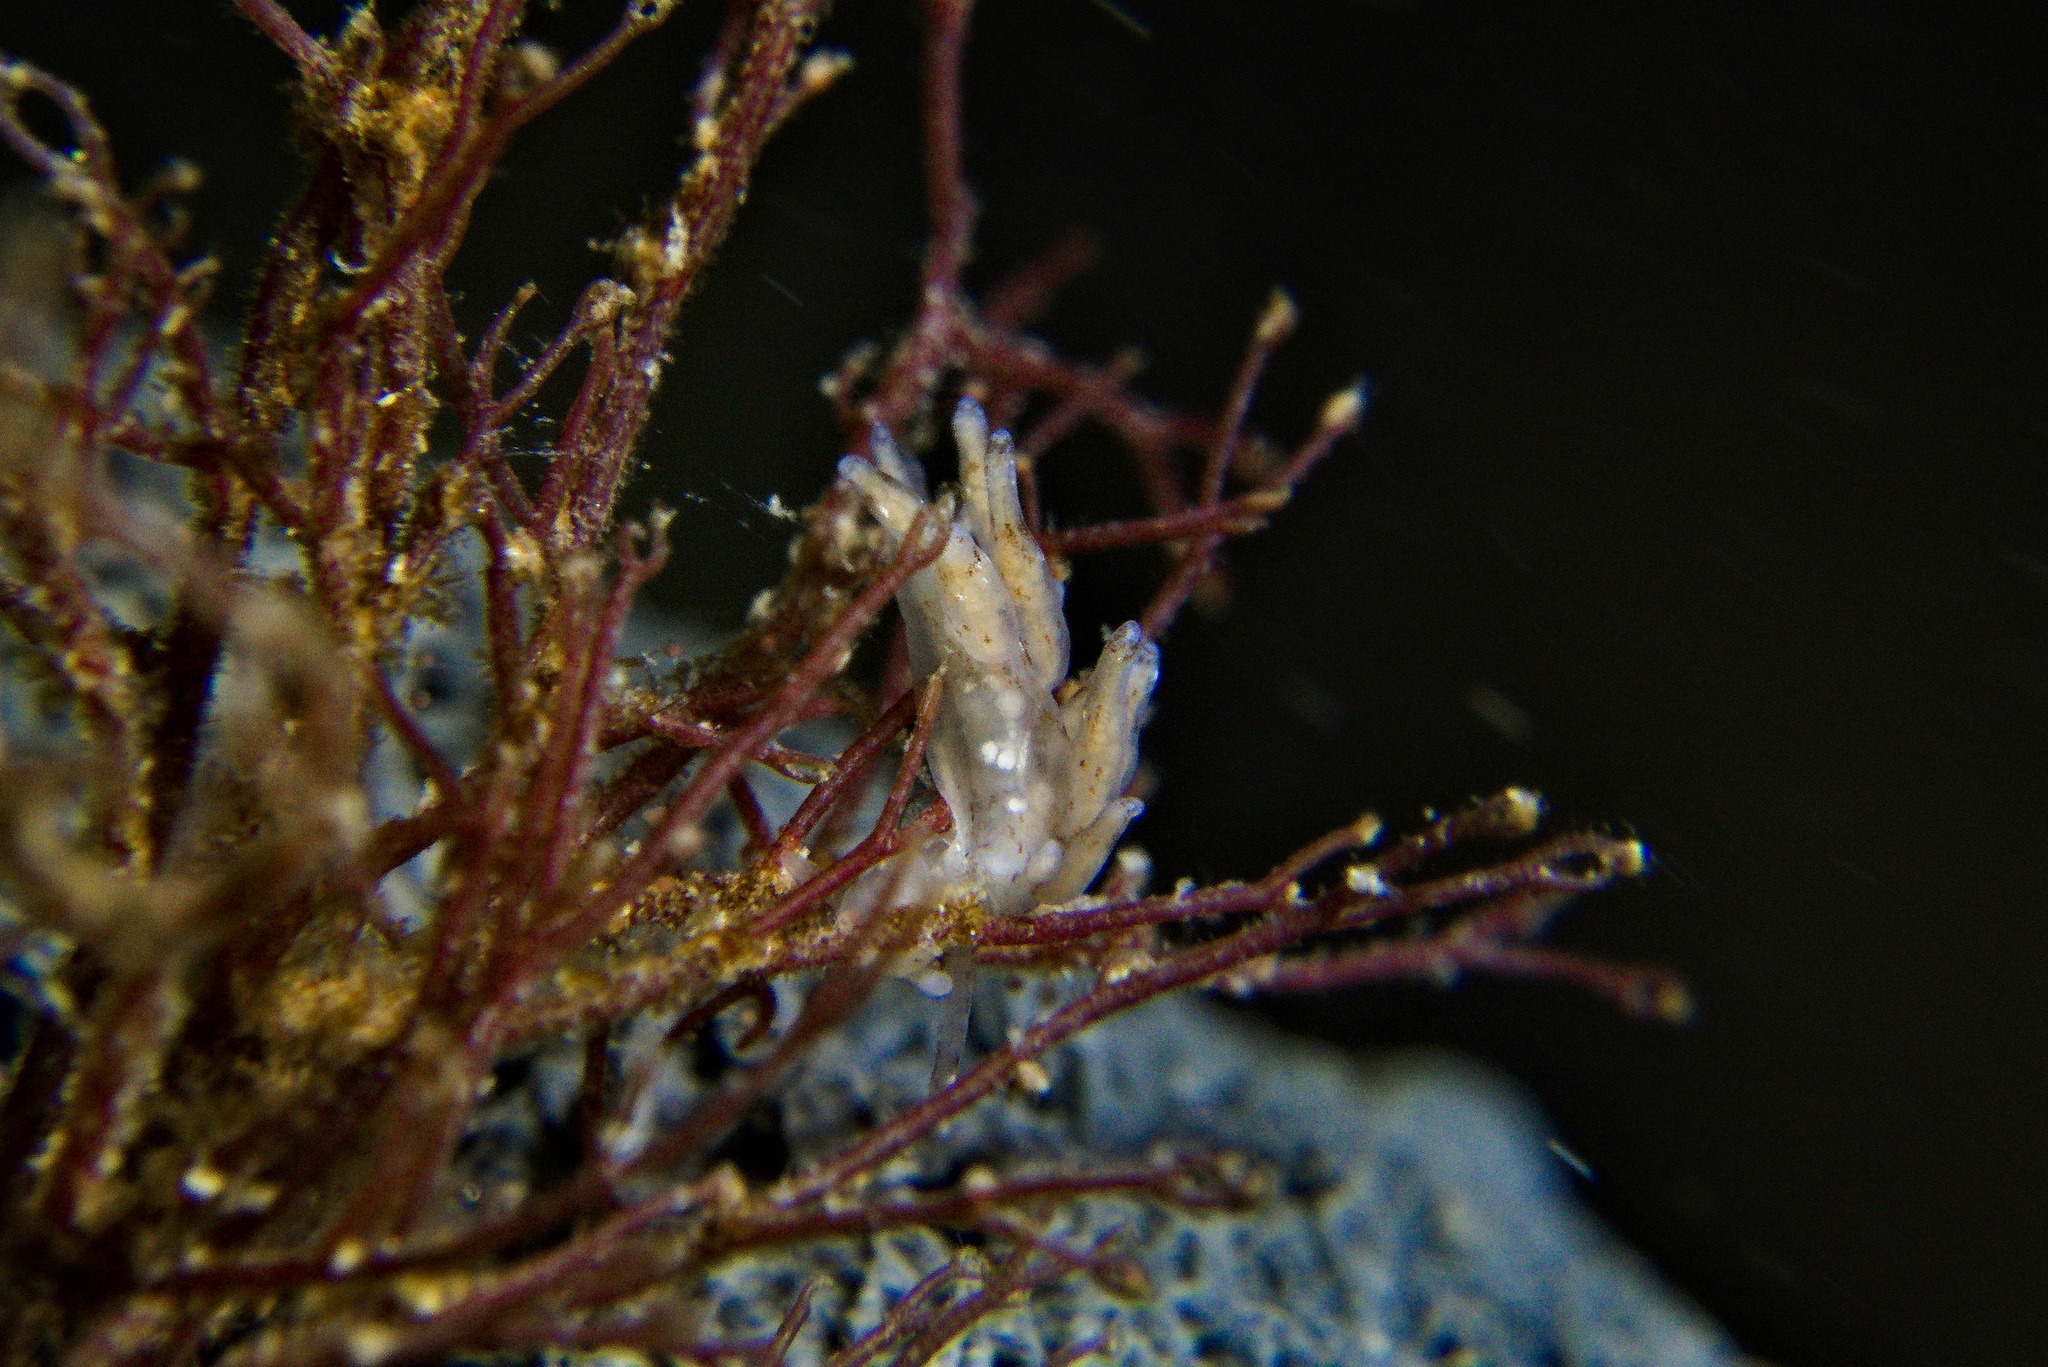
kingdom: Animalia
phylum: Mollusca
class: Gastropoda
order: Nudibranchia
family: Eubranchidae
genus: Eubranchus
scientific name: Eubranchus rupium
